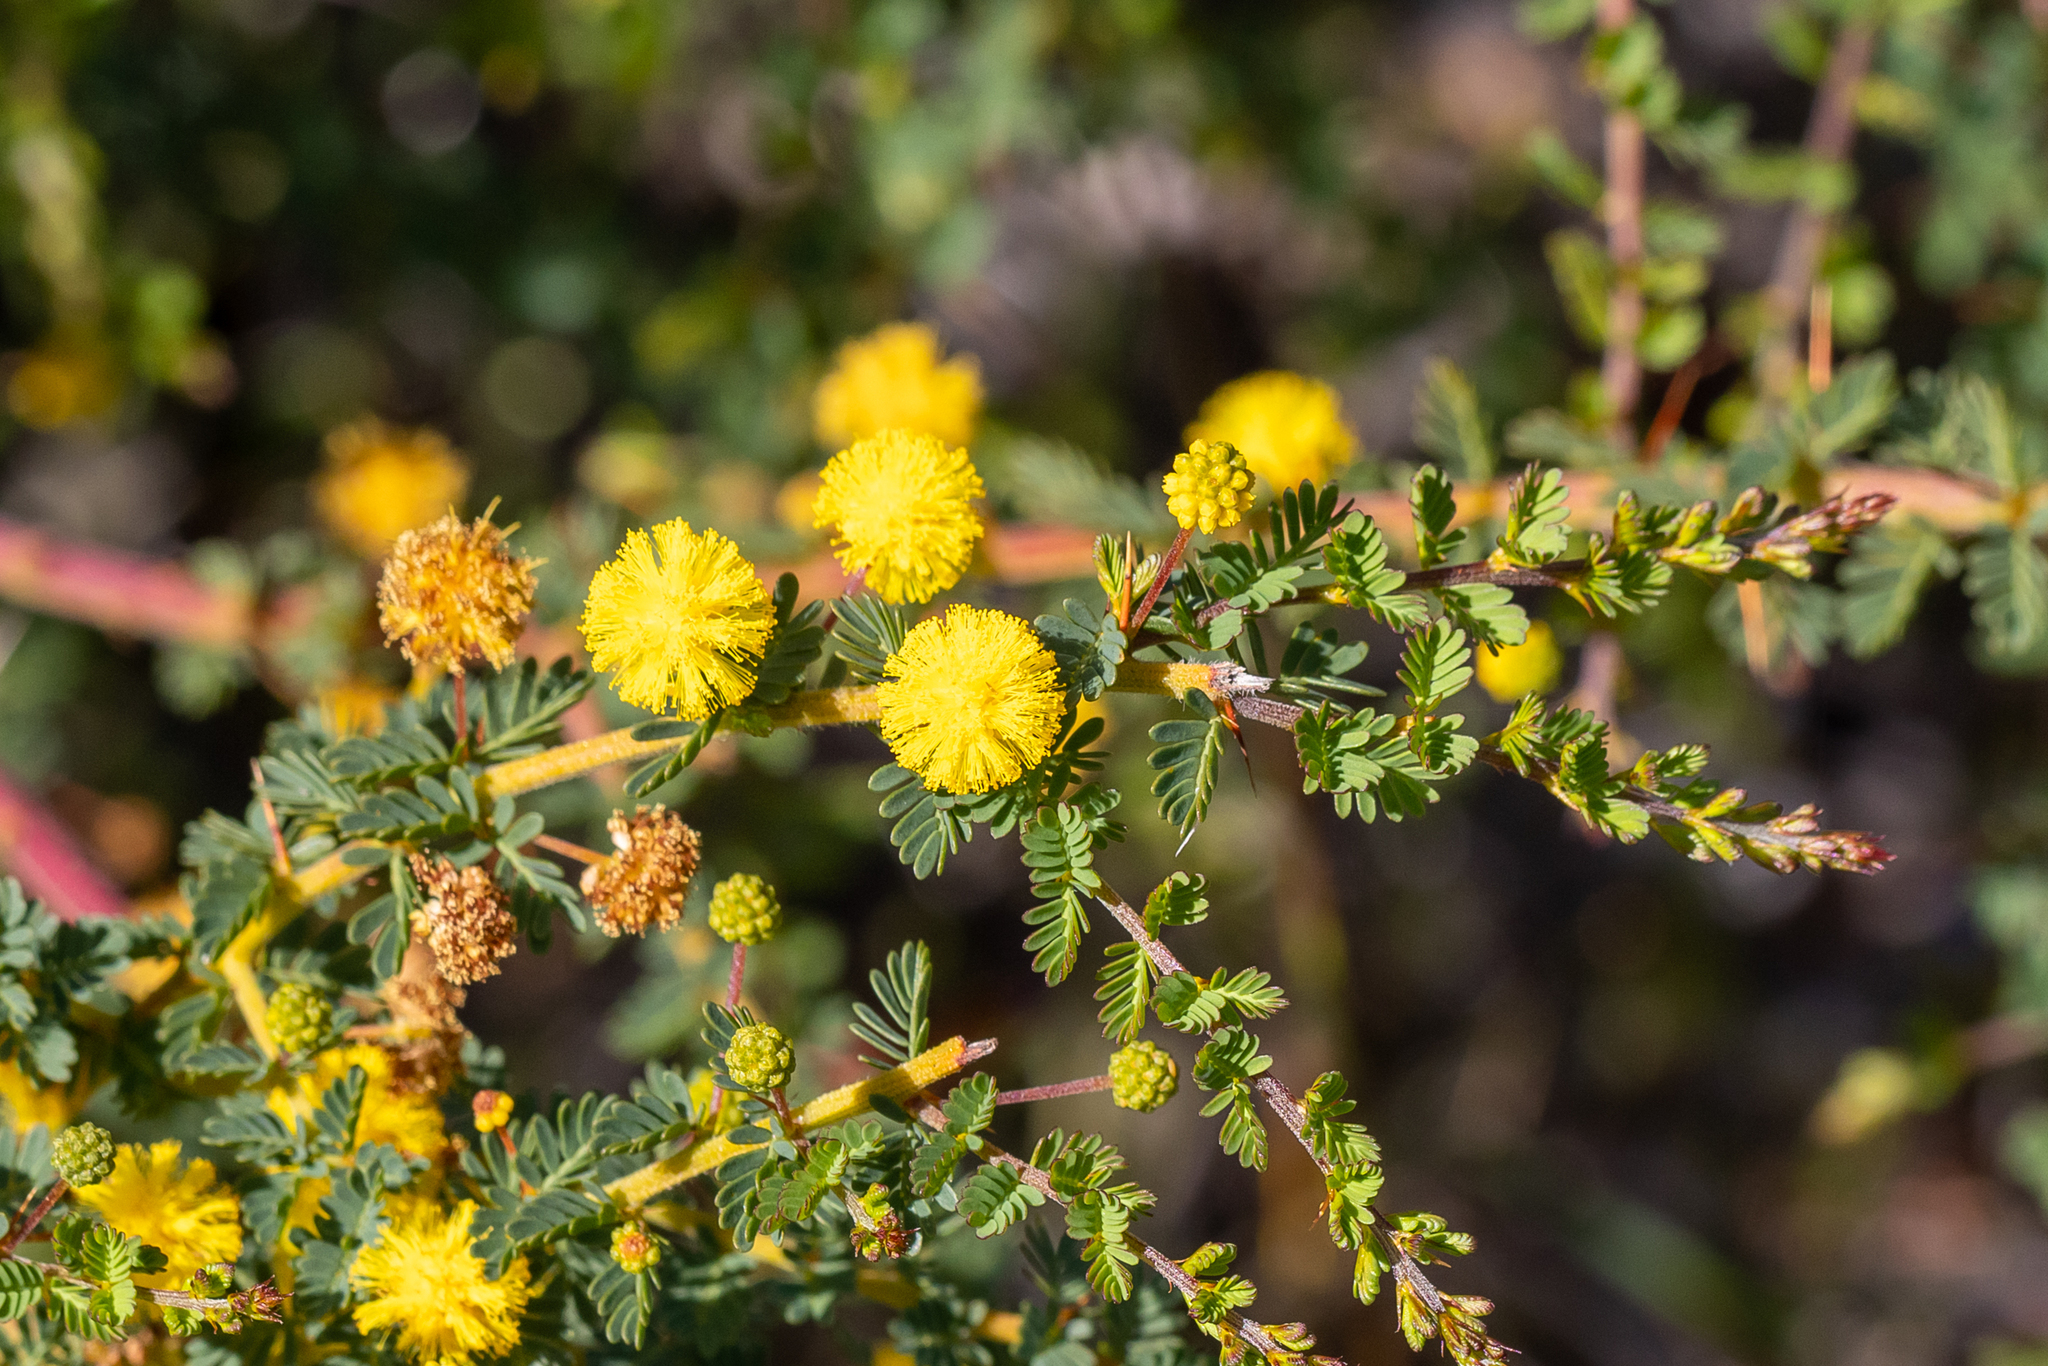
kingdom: Plantae
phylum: Tracheophyta
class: Magnoliopsida
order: Fabales
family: Fabaceae
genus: Acacia
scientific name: Acacia pulchella
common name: Prickly moses
